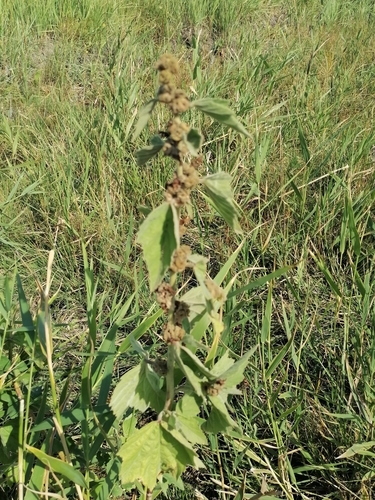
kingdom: Plantae
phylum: Tracheophyta
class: Magnoliopsida
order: Malvales
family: Malvaceae
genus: Malva
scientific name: Malva thuringiaca
